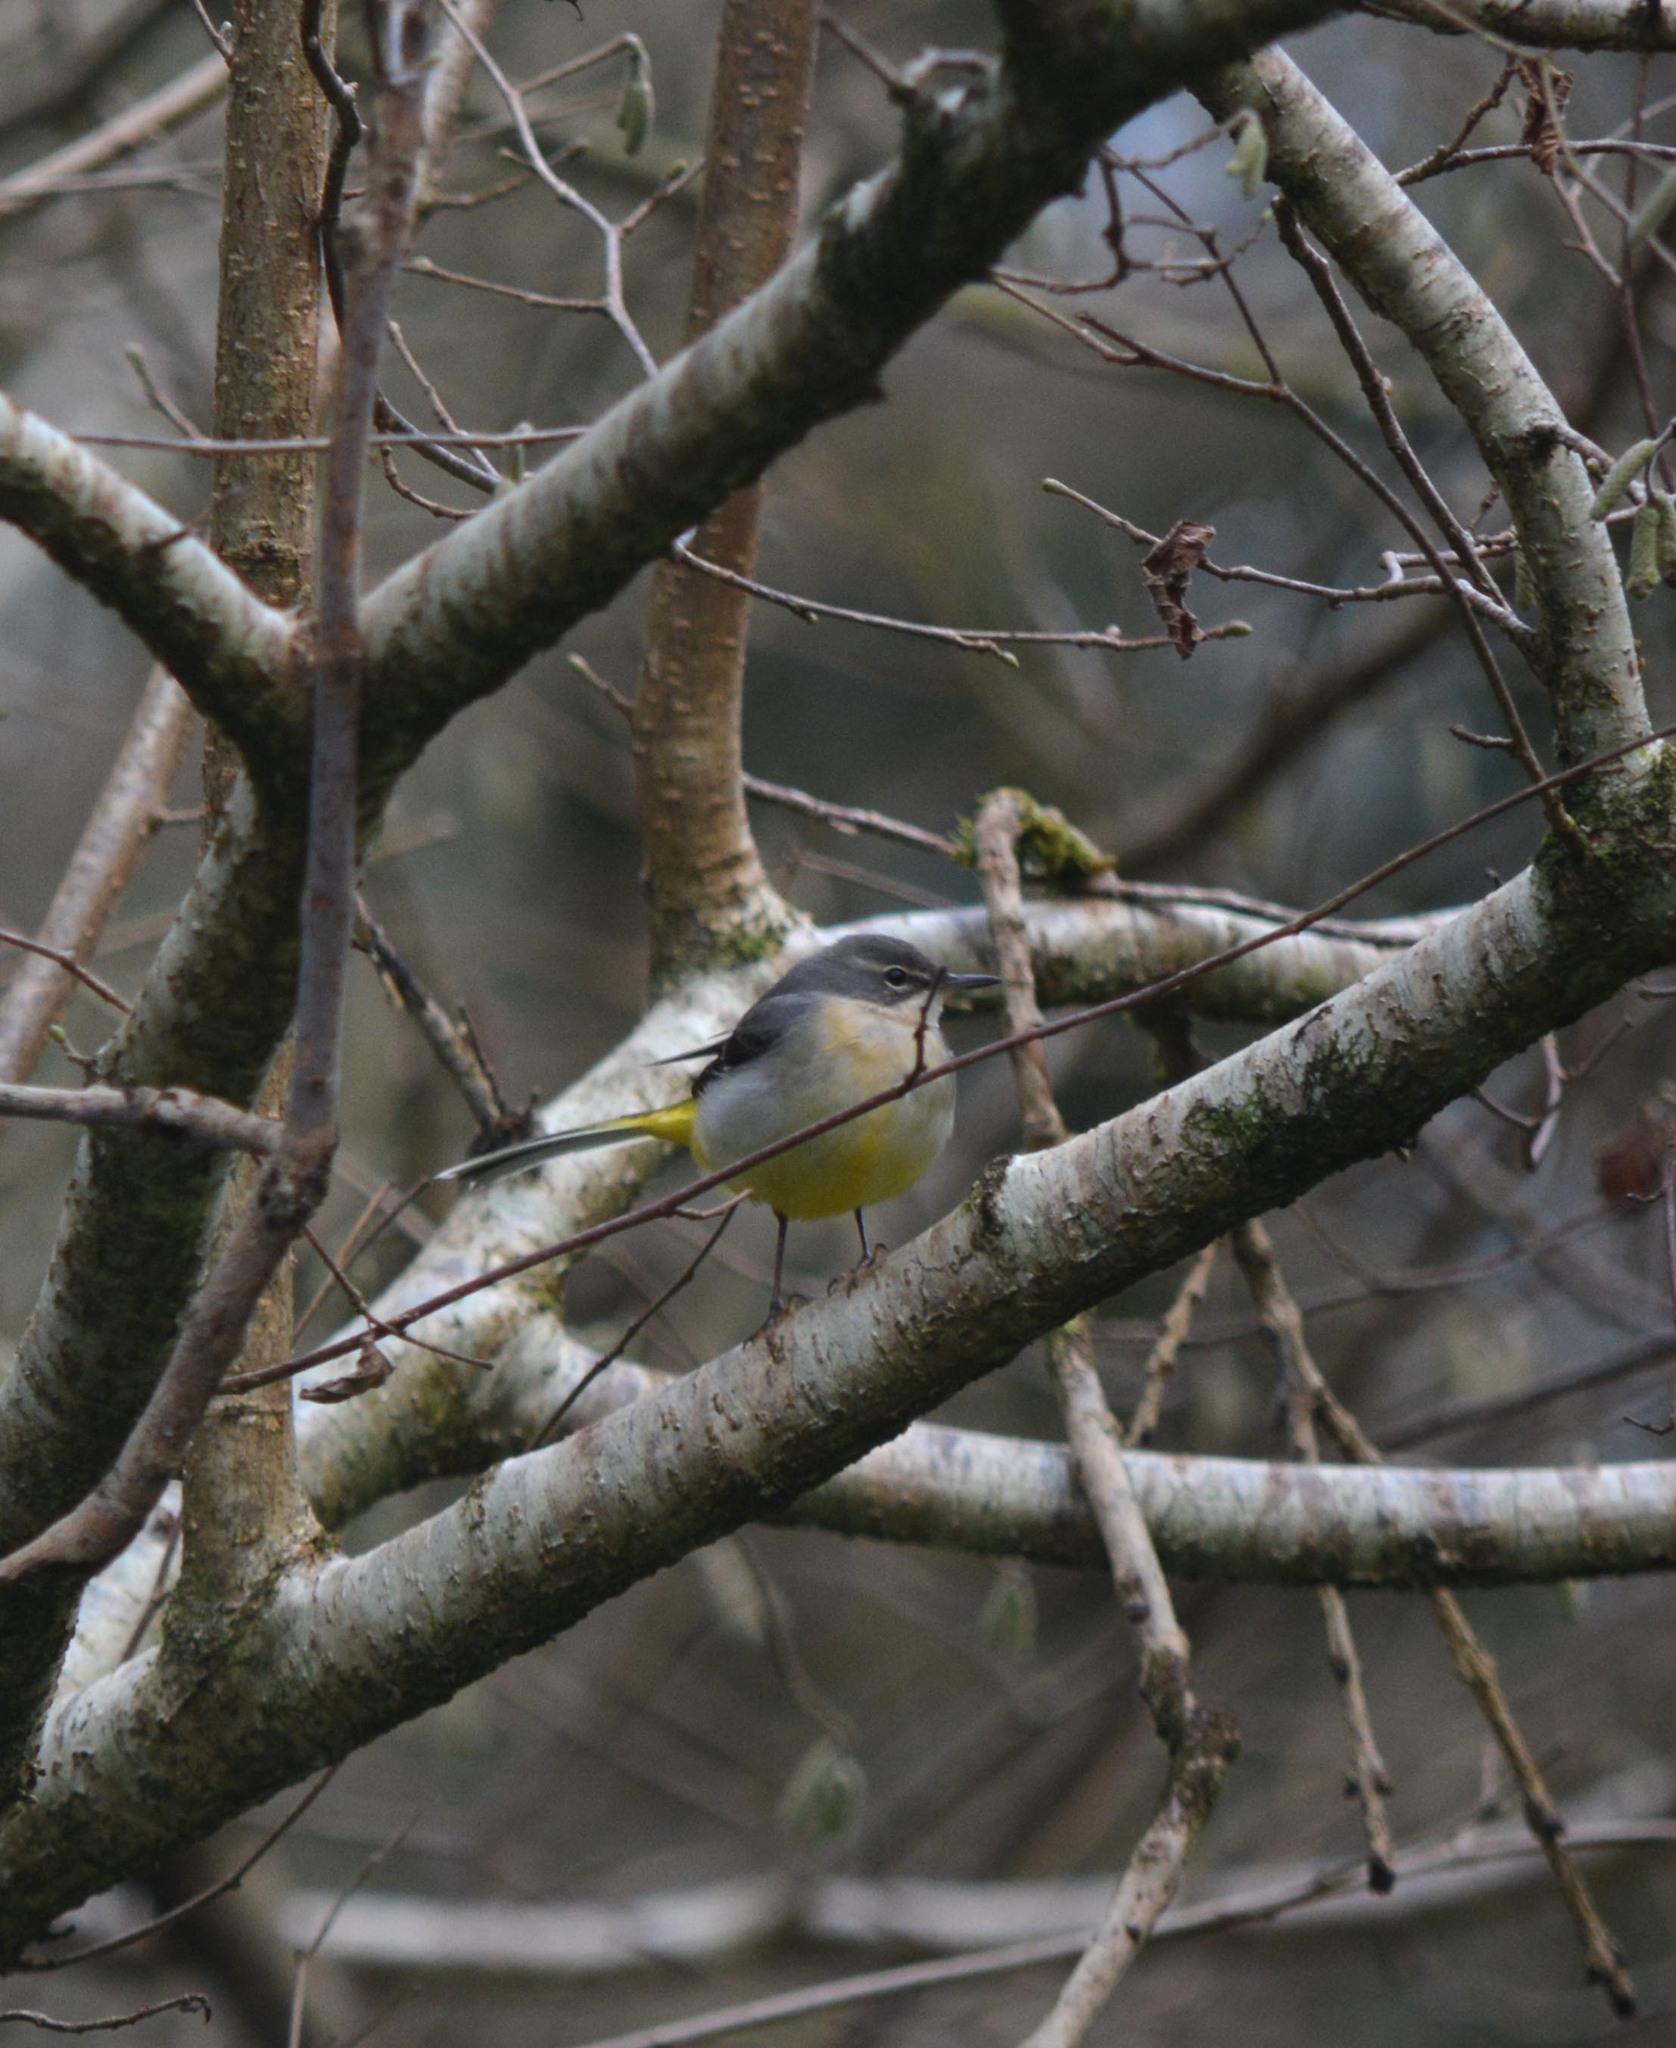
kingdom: Animalia
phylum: Chordata
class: Aves
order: Passeriformes
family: Motacillidae
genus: Motacilla
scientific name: Motacilla cinerea
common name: Grey wagtail
